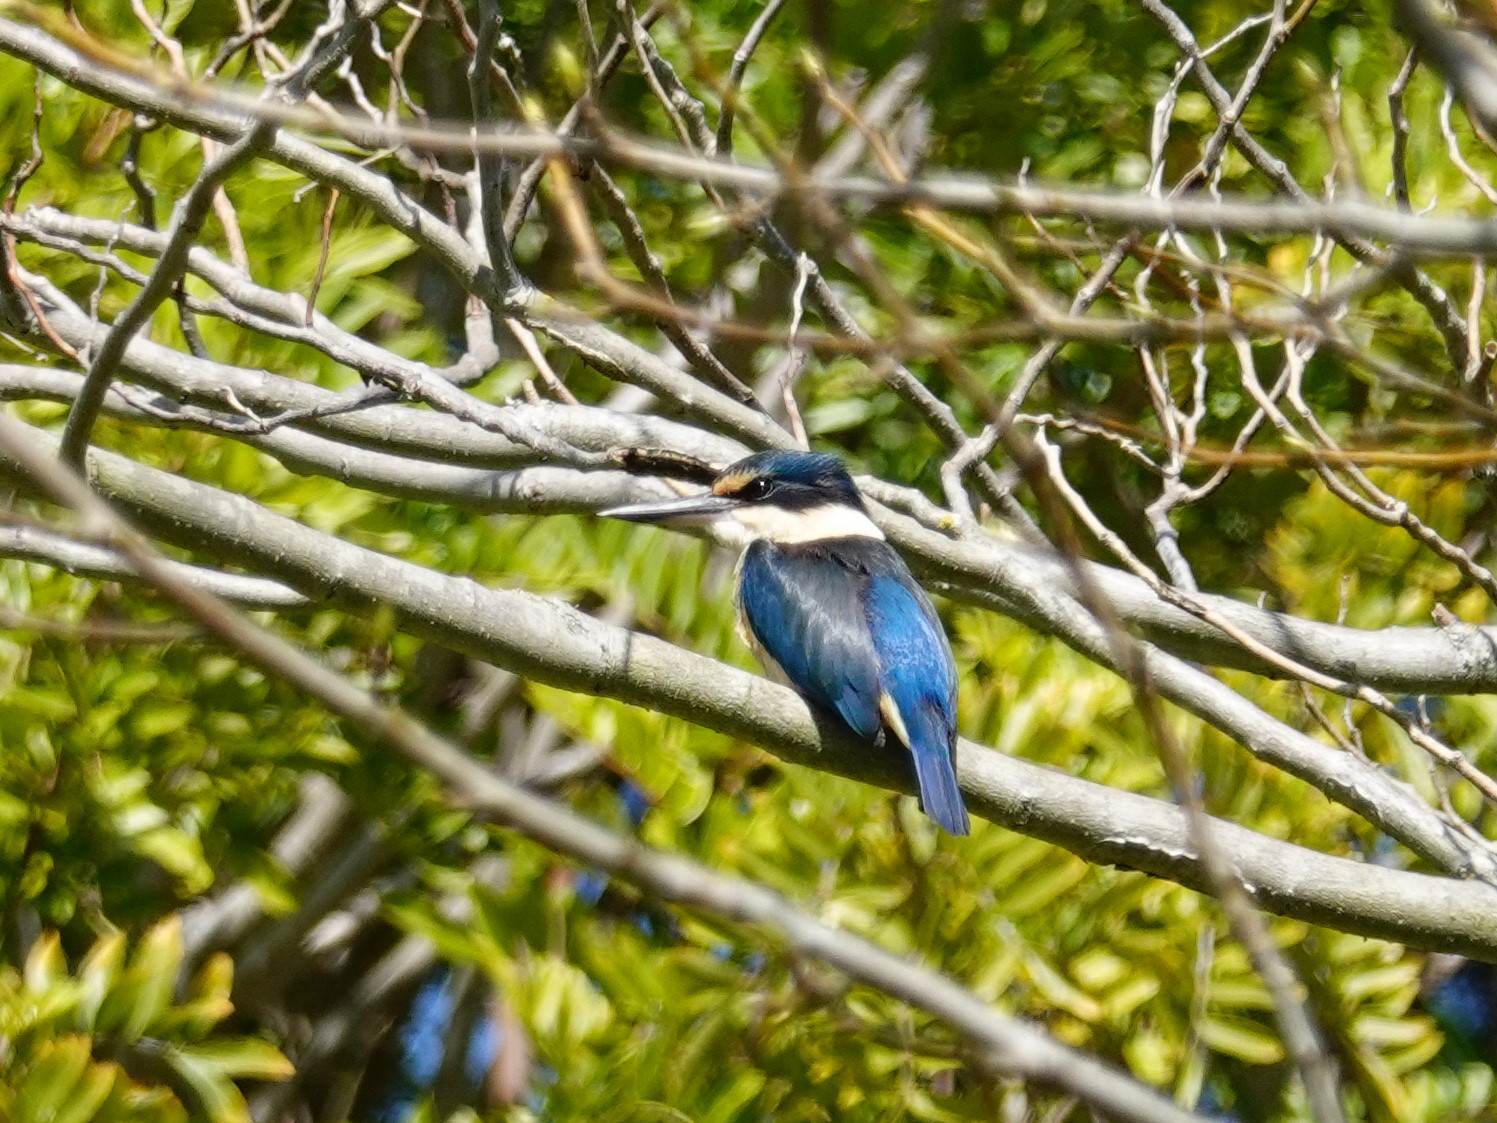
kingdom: Animalia
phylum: Chordata
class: Aves
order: Coraciiformes
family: Alcedinidae
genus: Todiramphus
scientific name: Todiramphus sanctus
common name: Sacred kingfisher
